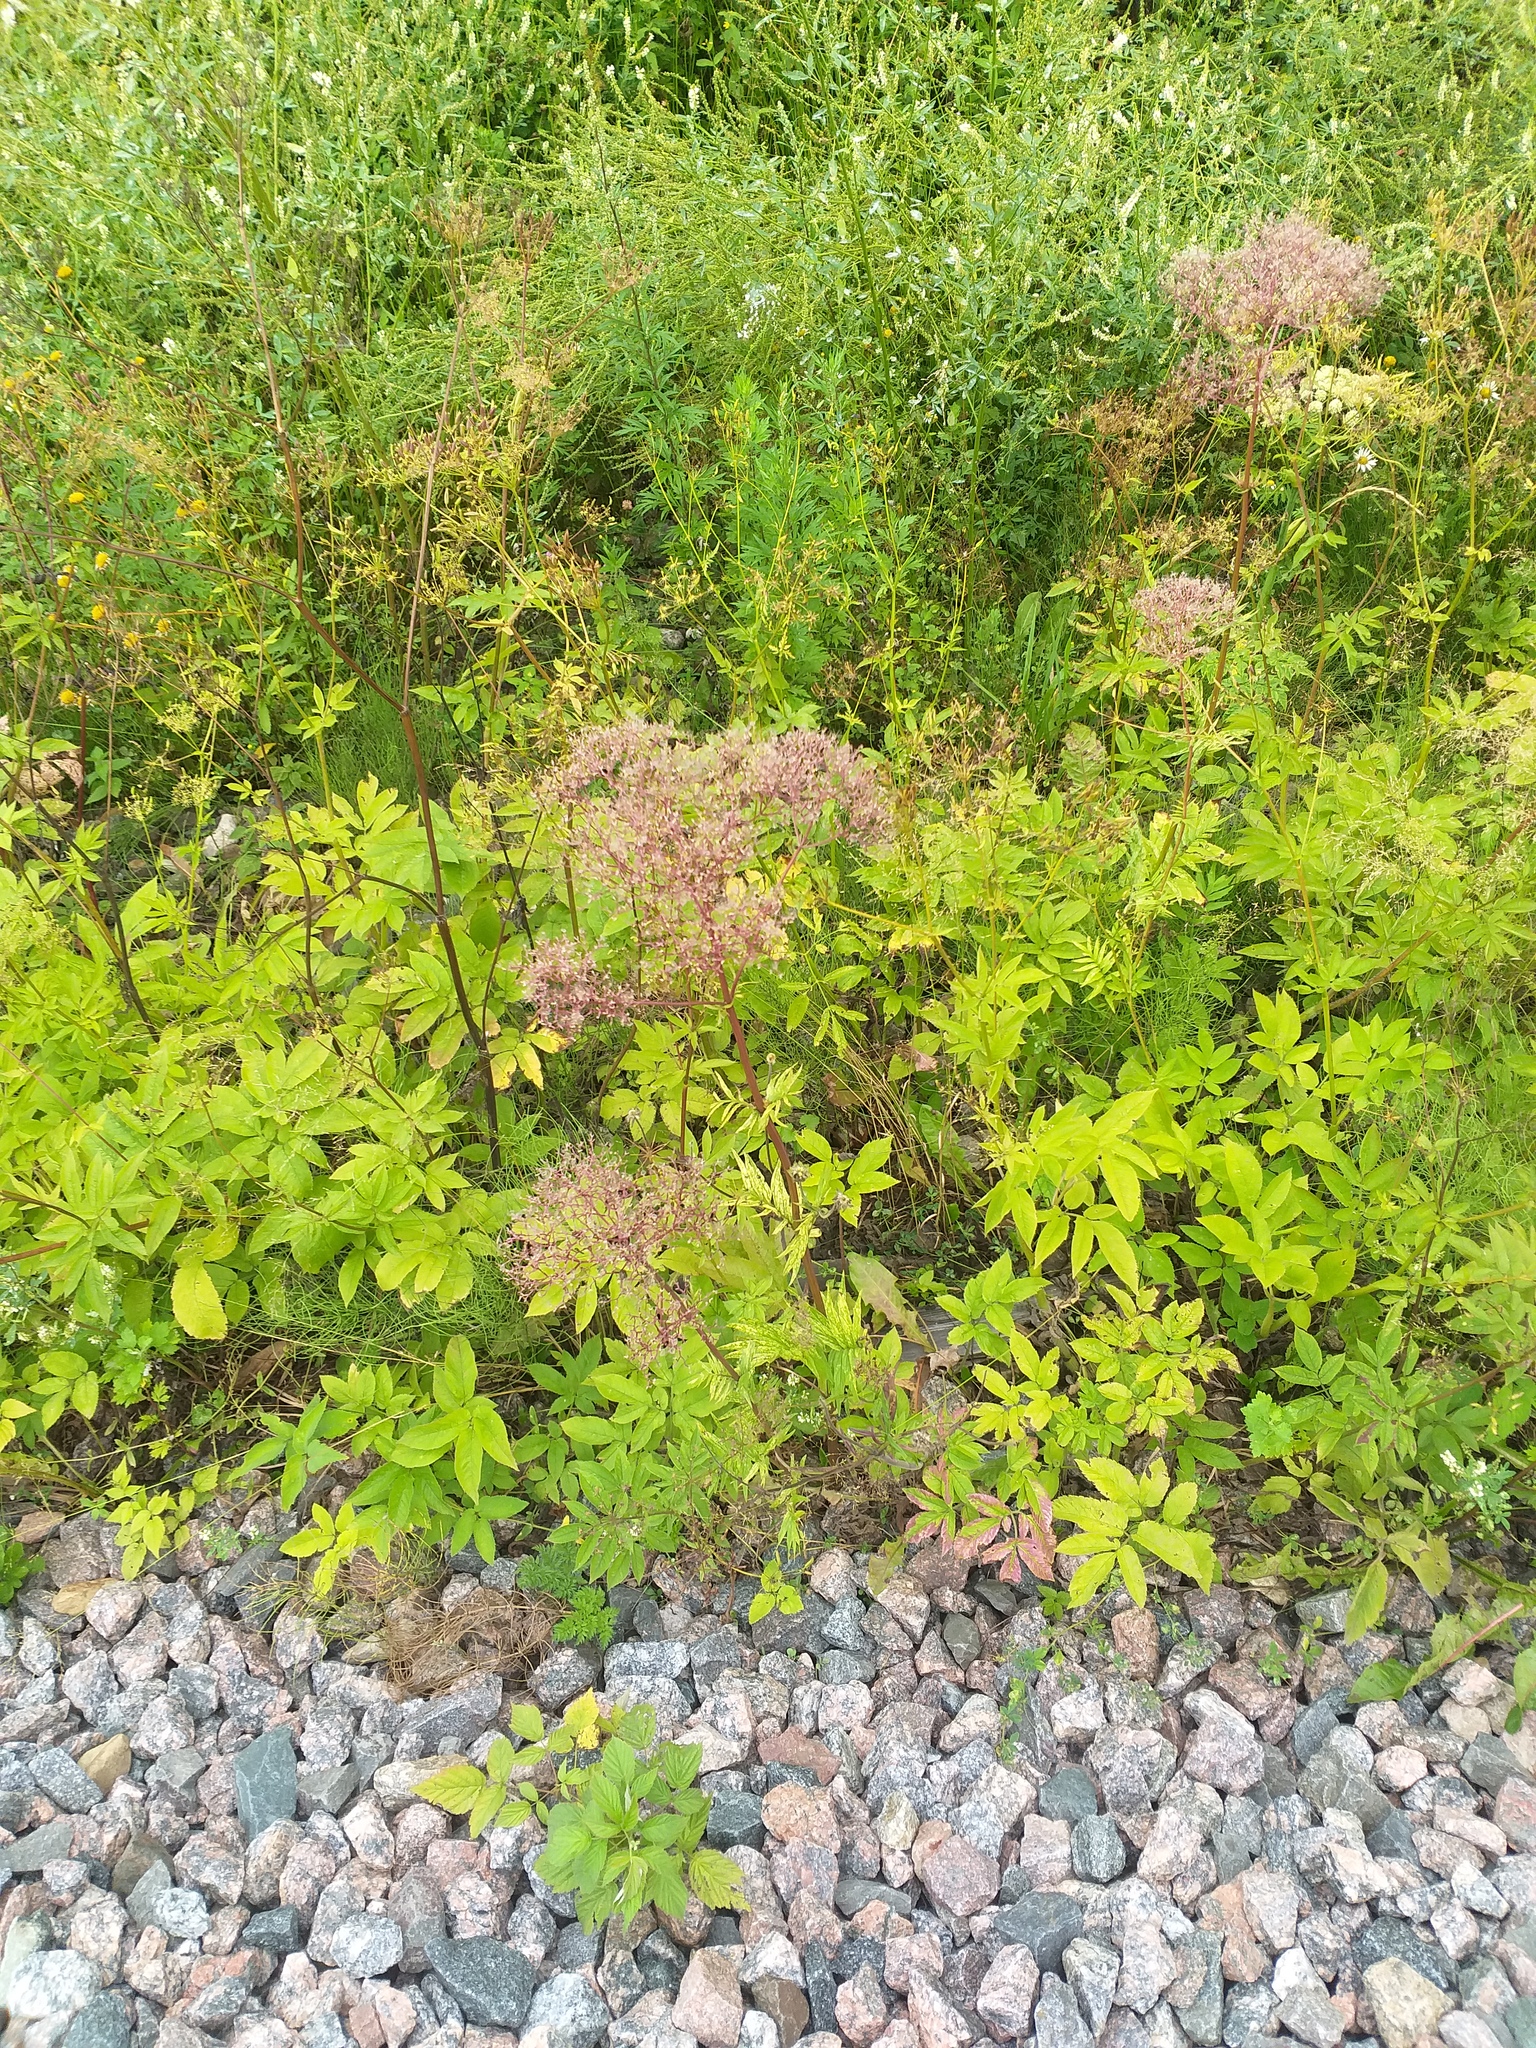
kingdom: Plantae
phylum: Tracheophyta
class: Magnoliopsida
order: Dipsacales
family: Caprifoliaceae
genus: Valeriana
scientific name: Valeriana officinalis
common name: Common valerian
